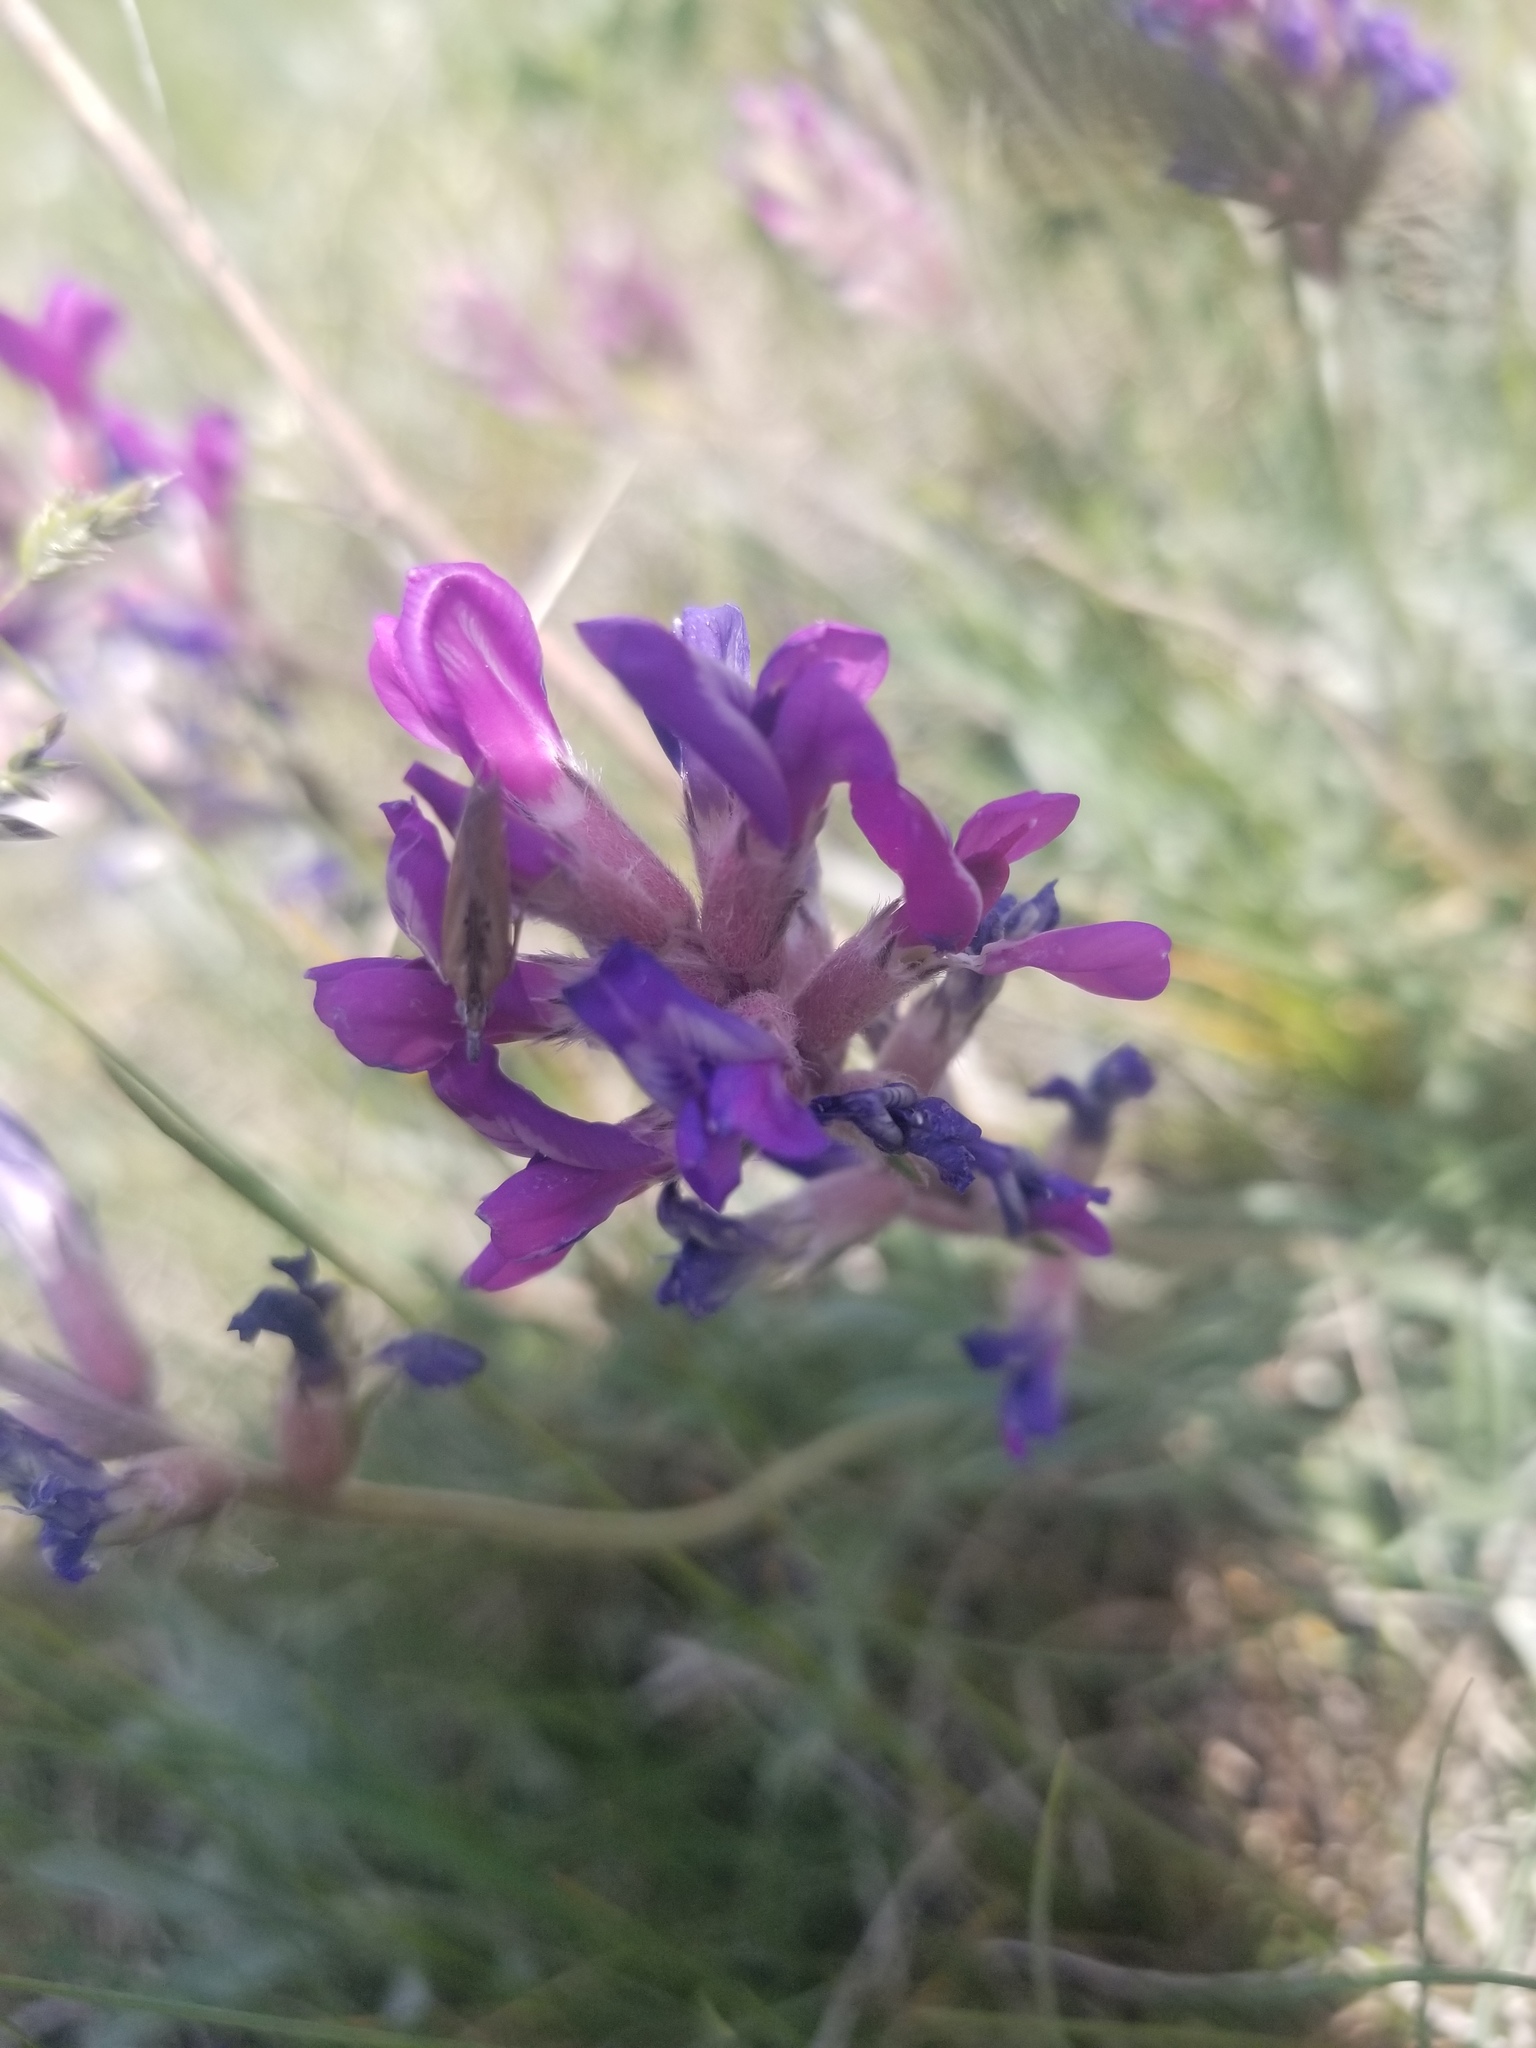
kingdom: Plantae
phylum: Tracheophyta
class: Magnoliopsida
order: Fabales
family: Fabaceae
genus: Oxytropis
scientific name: Oxytropis lambertii
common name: Purple locoweed
